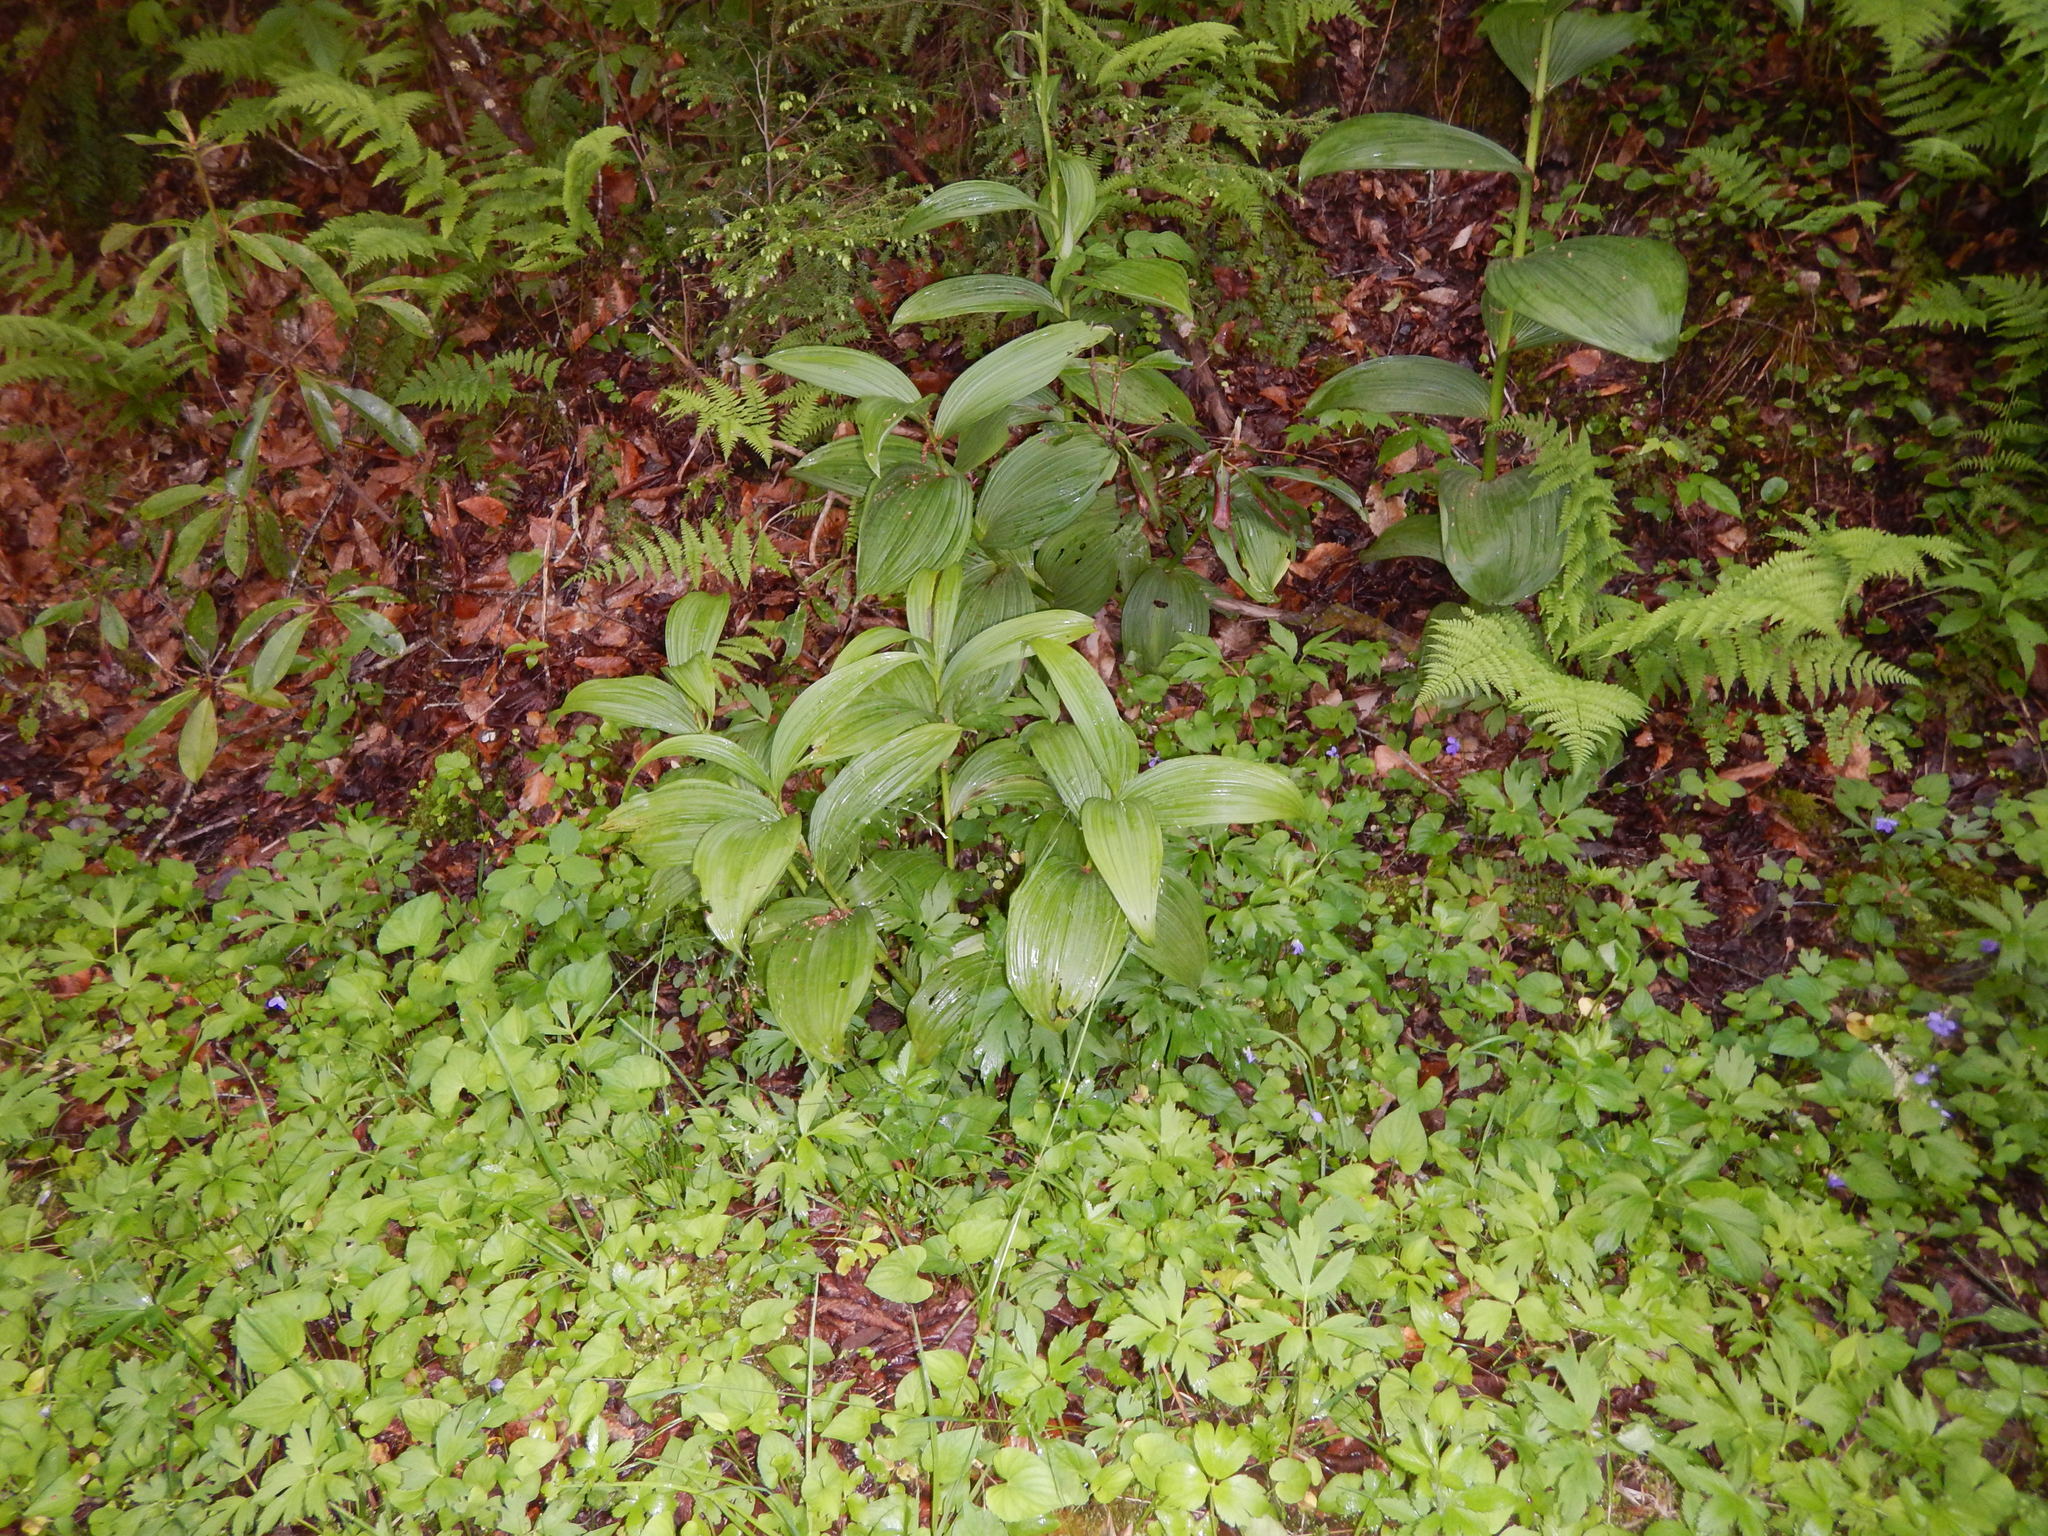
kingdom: Plantae
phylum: Tracheophyta
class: Liliopsida
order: Liliales
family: Melanthiaceae
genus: Veratrum
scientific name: Veratrum viride
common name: American false hellebore
